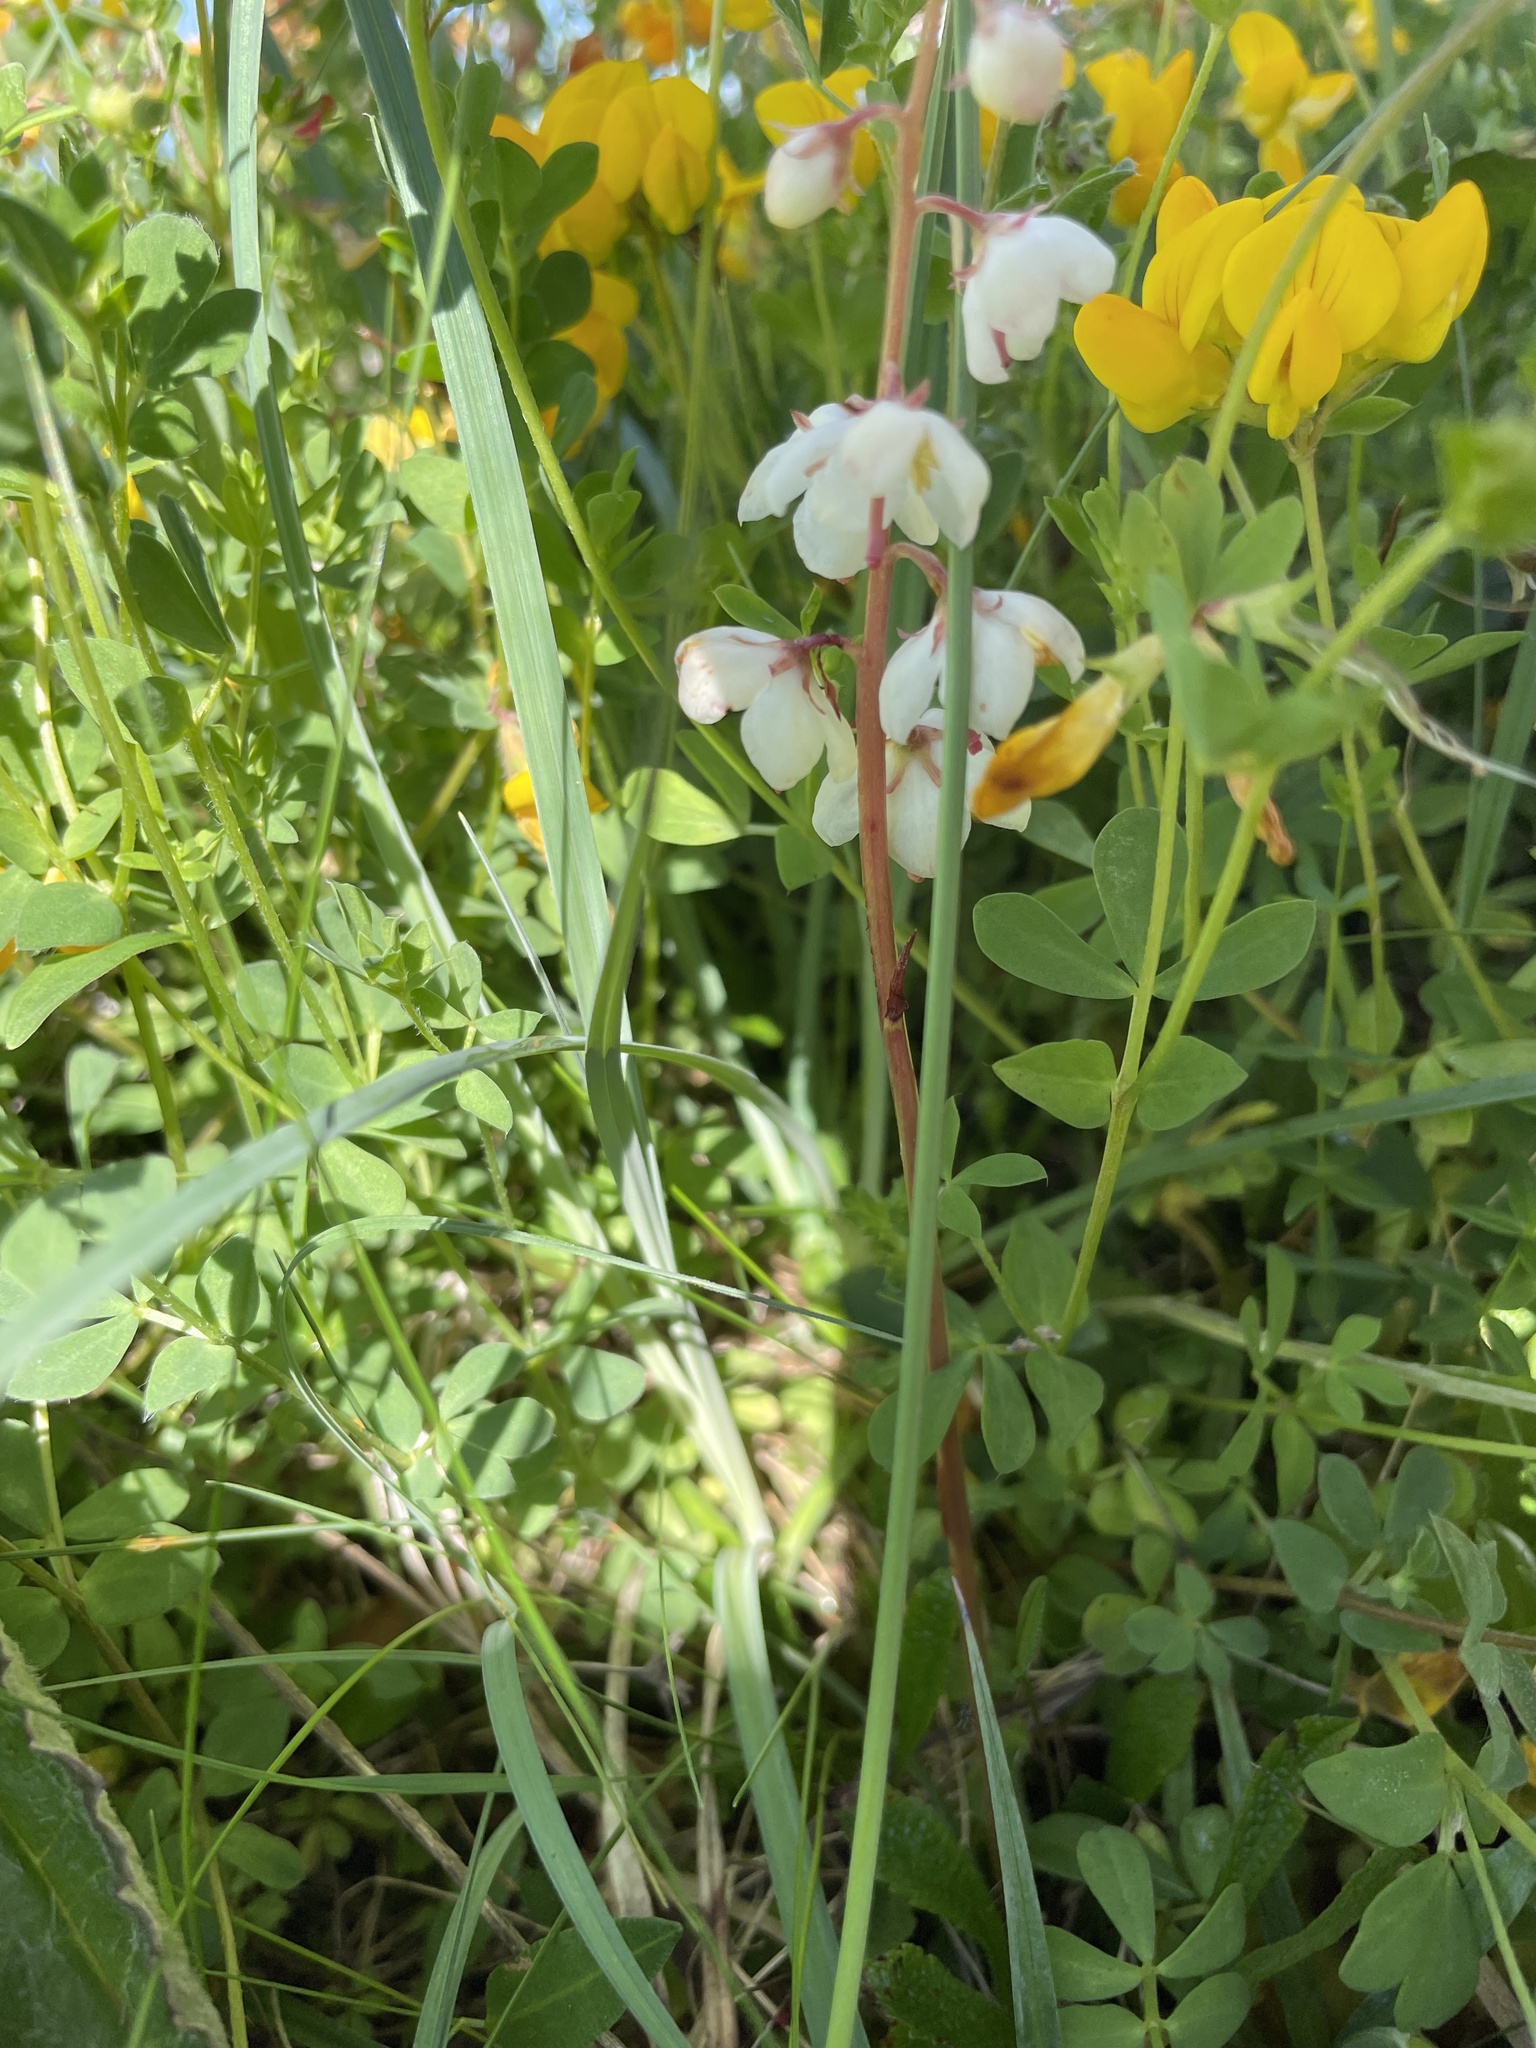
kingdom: Plantae
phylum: Tracheophyta
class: Magnoliopsida
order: Ericales
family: Ericaceae
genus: Pyrola
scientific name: Pyrola rotundifolia
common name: Round-leaved wintergreen
